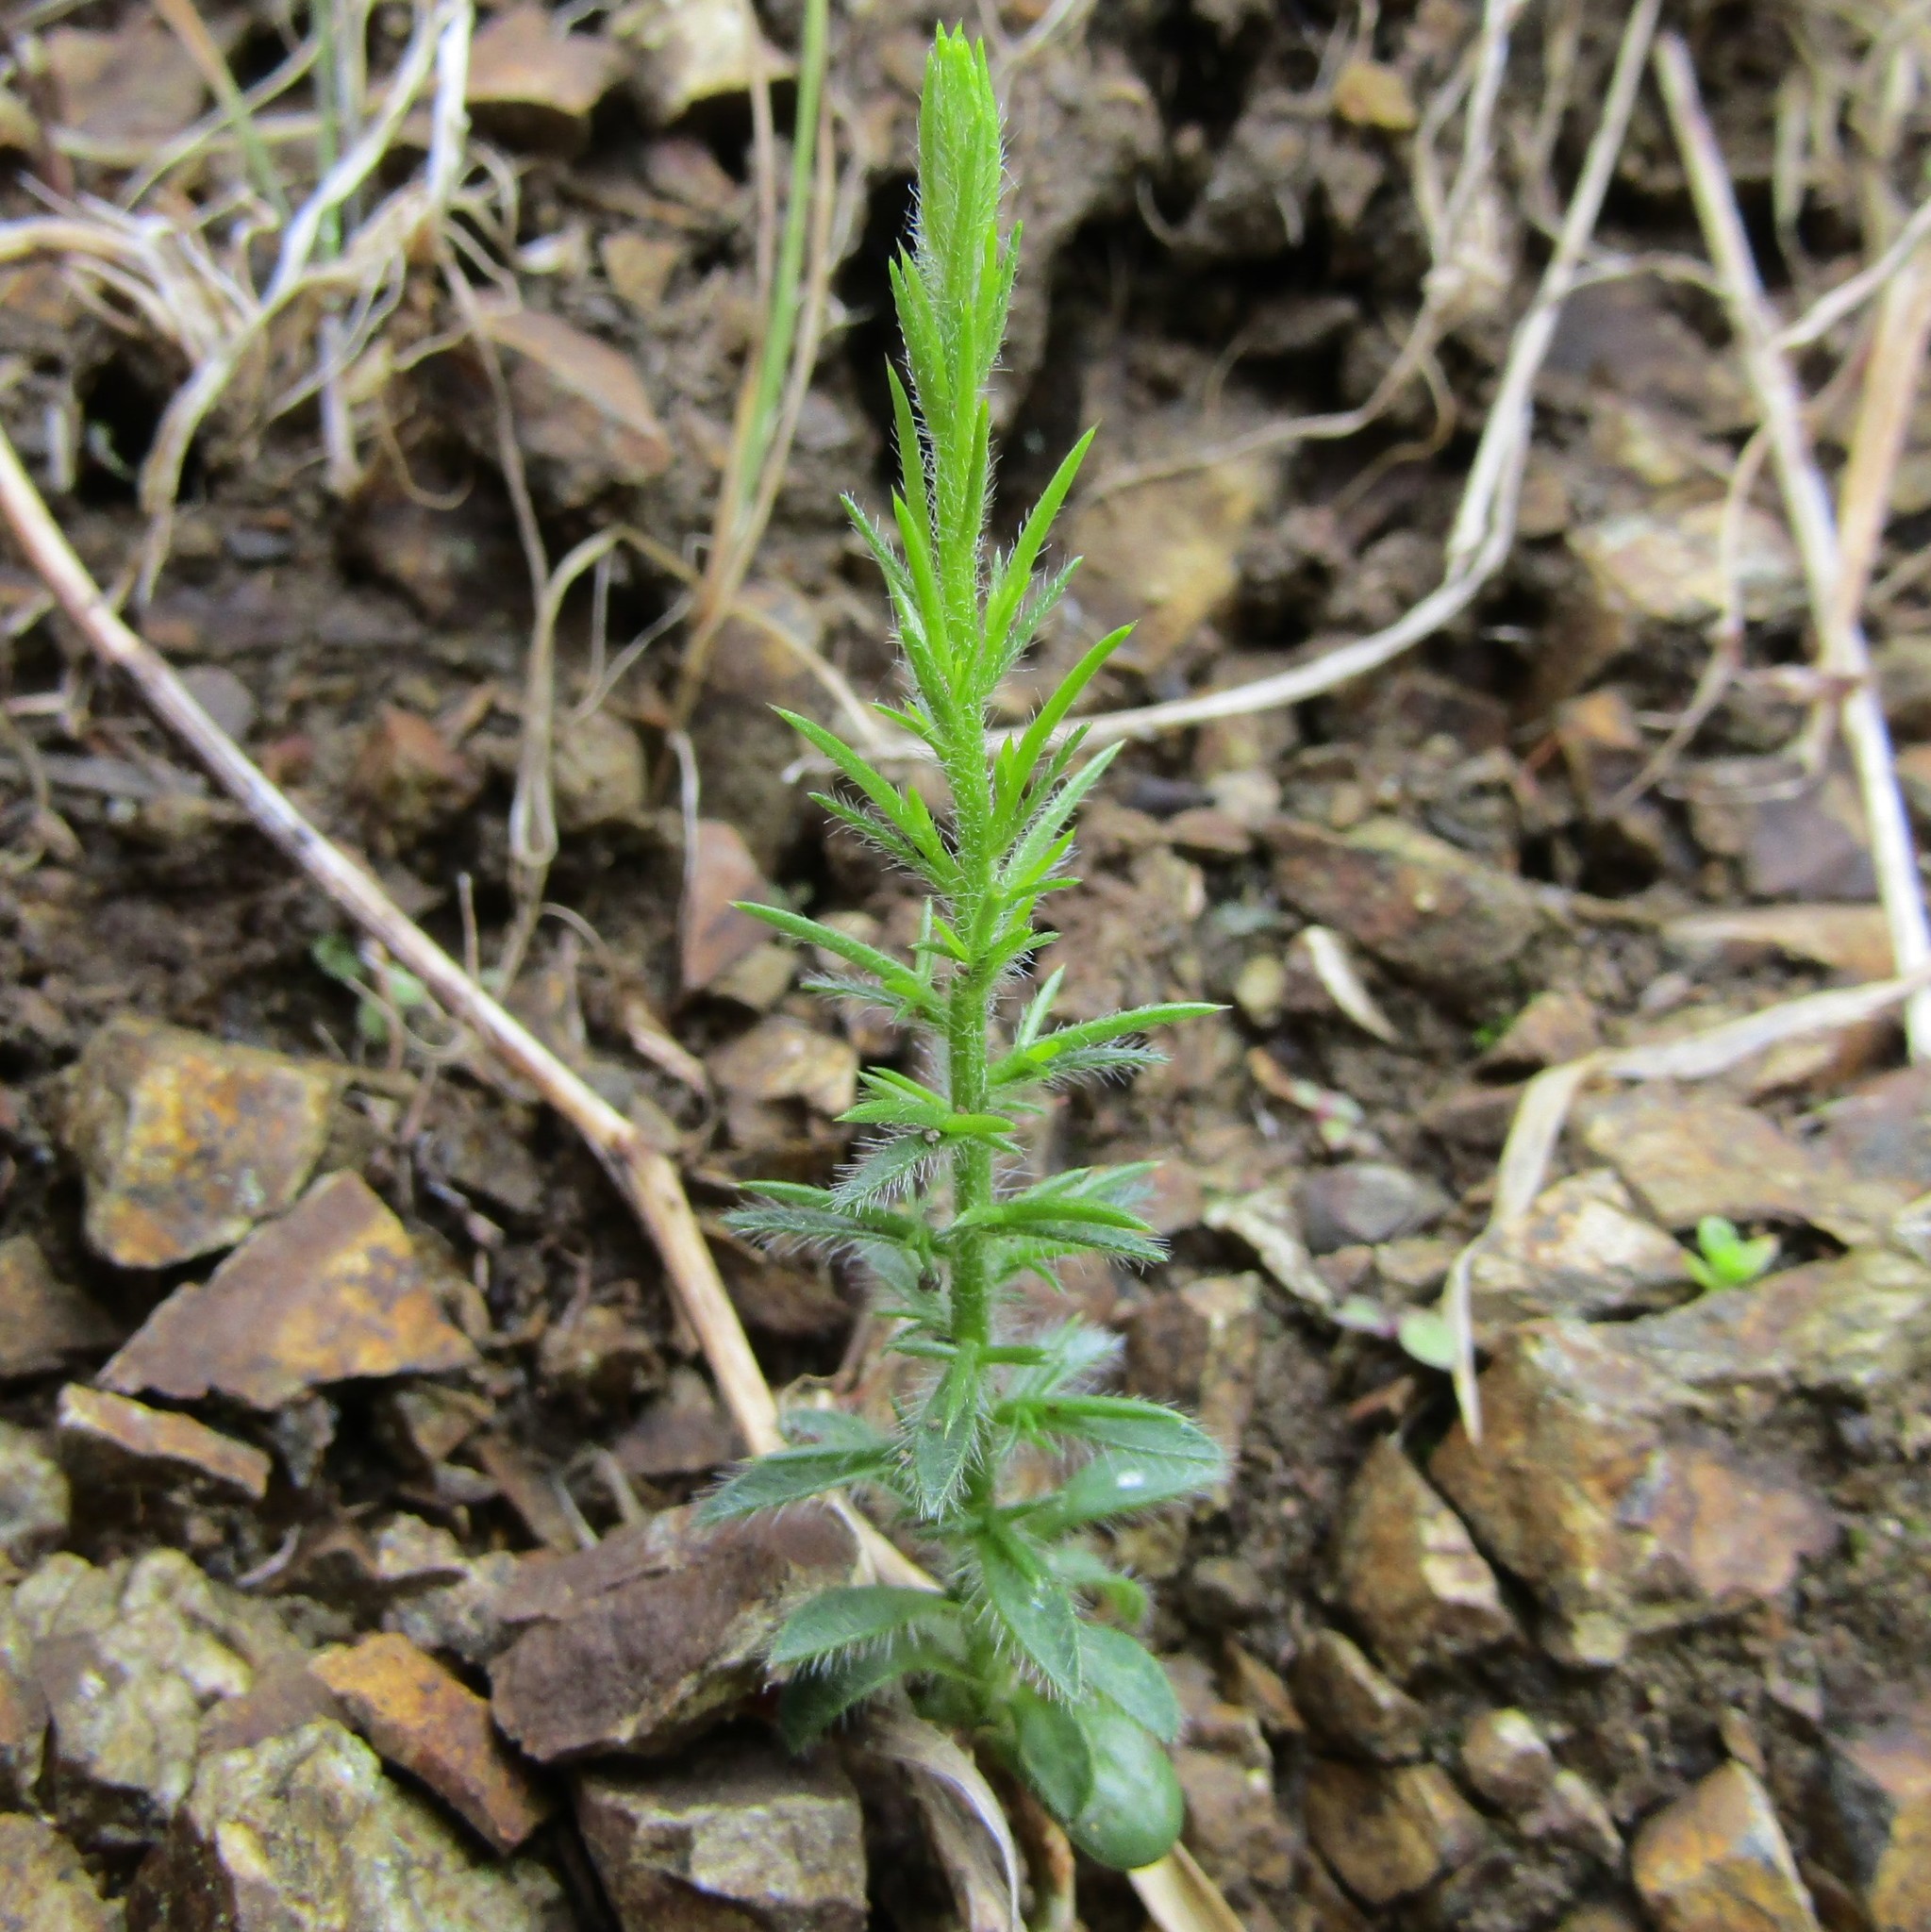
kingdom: Plantae
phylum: Tracheophyta
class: Magnoliopsida
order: Fabales
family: Fabaceae
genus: Ulex
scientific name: Ulex europaeus
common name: Common gorse
